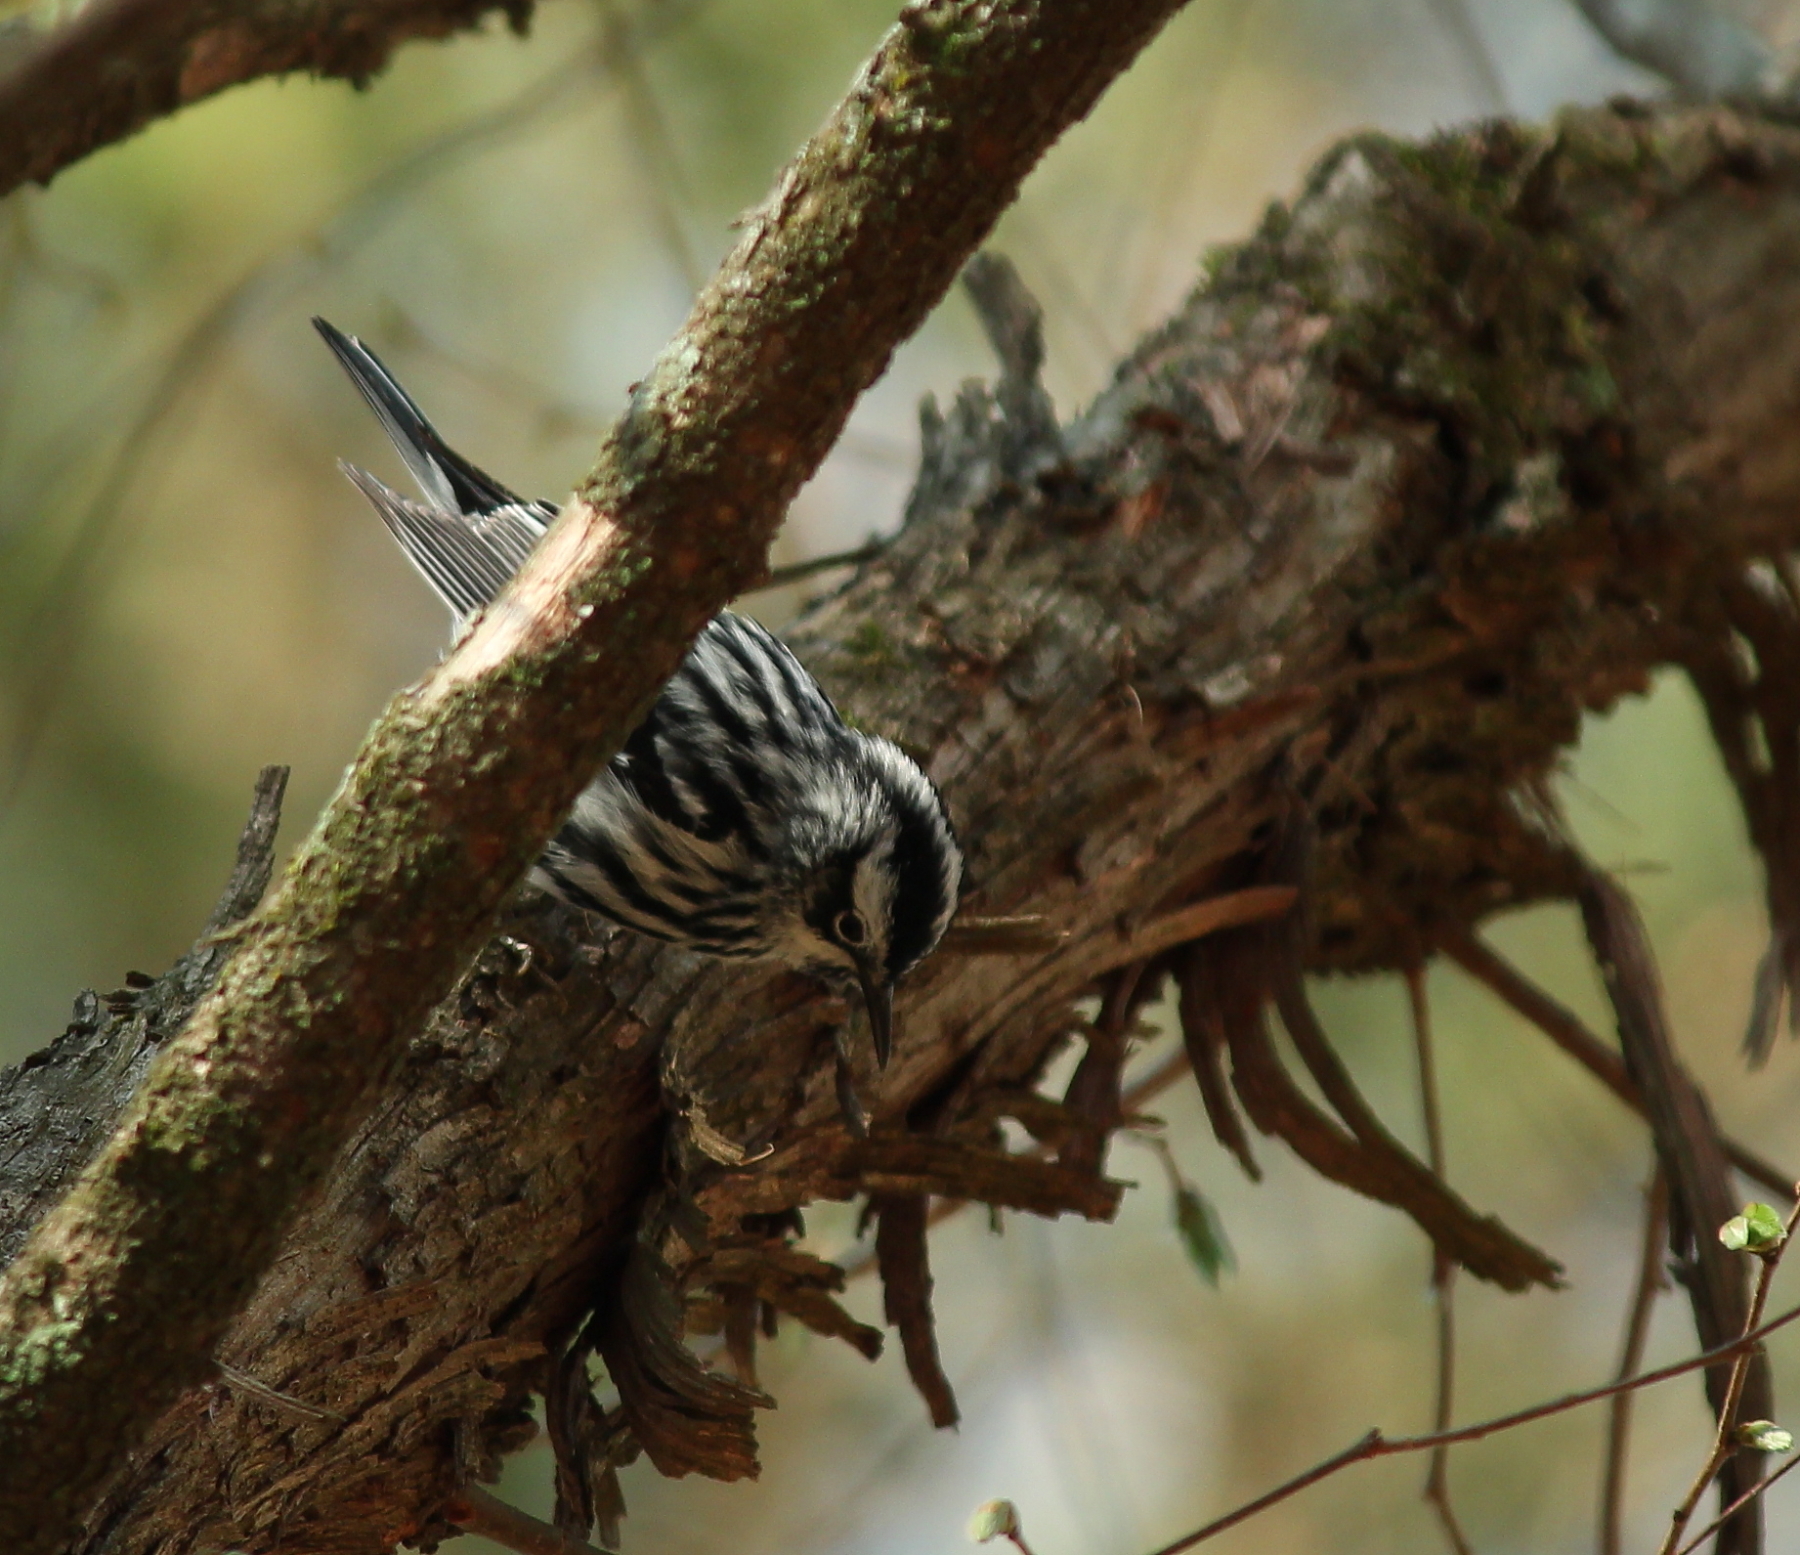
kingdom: Animalia
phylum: Chordata
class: Aves
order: Passeriformes
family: Parulidae
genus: Mniotilta
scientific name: Mniotilta varia
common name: Black-and-white warbler
